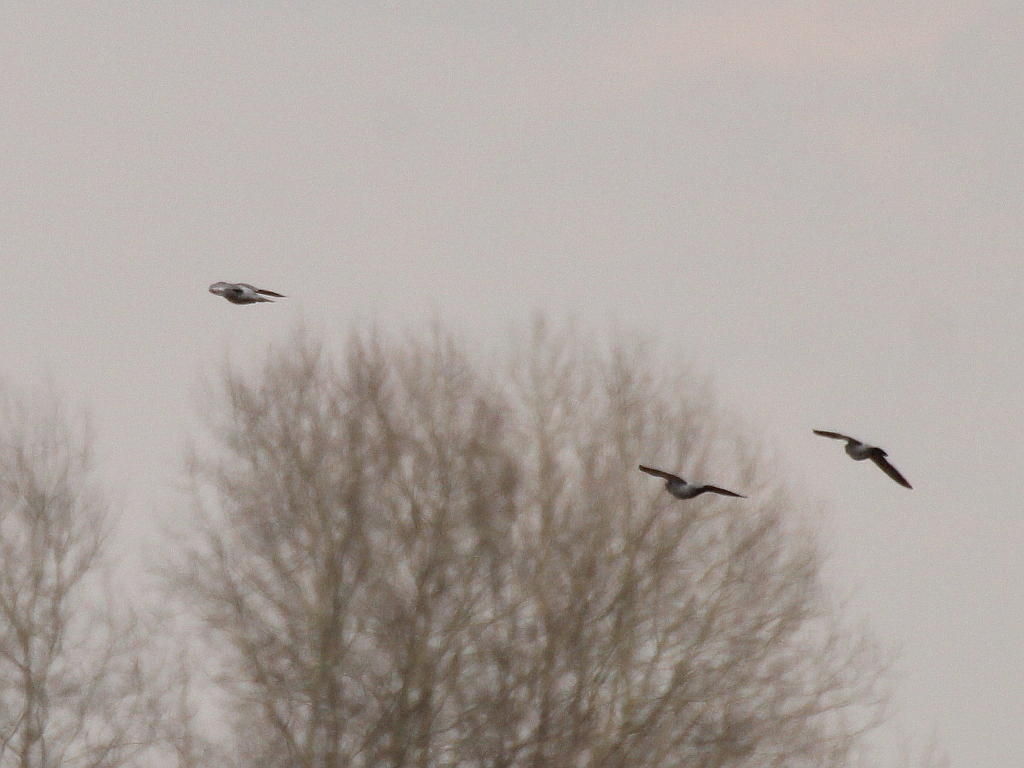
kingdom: Animalia
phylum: Chordata
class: Aves
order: Columbiformes
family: Columbidae
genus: Columba
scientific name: Columba oenas
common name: Stock dove
